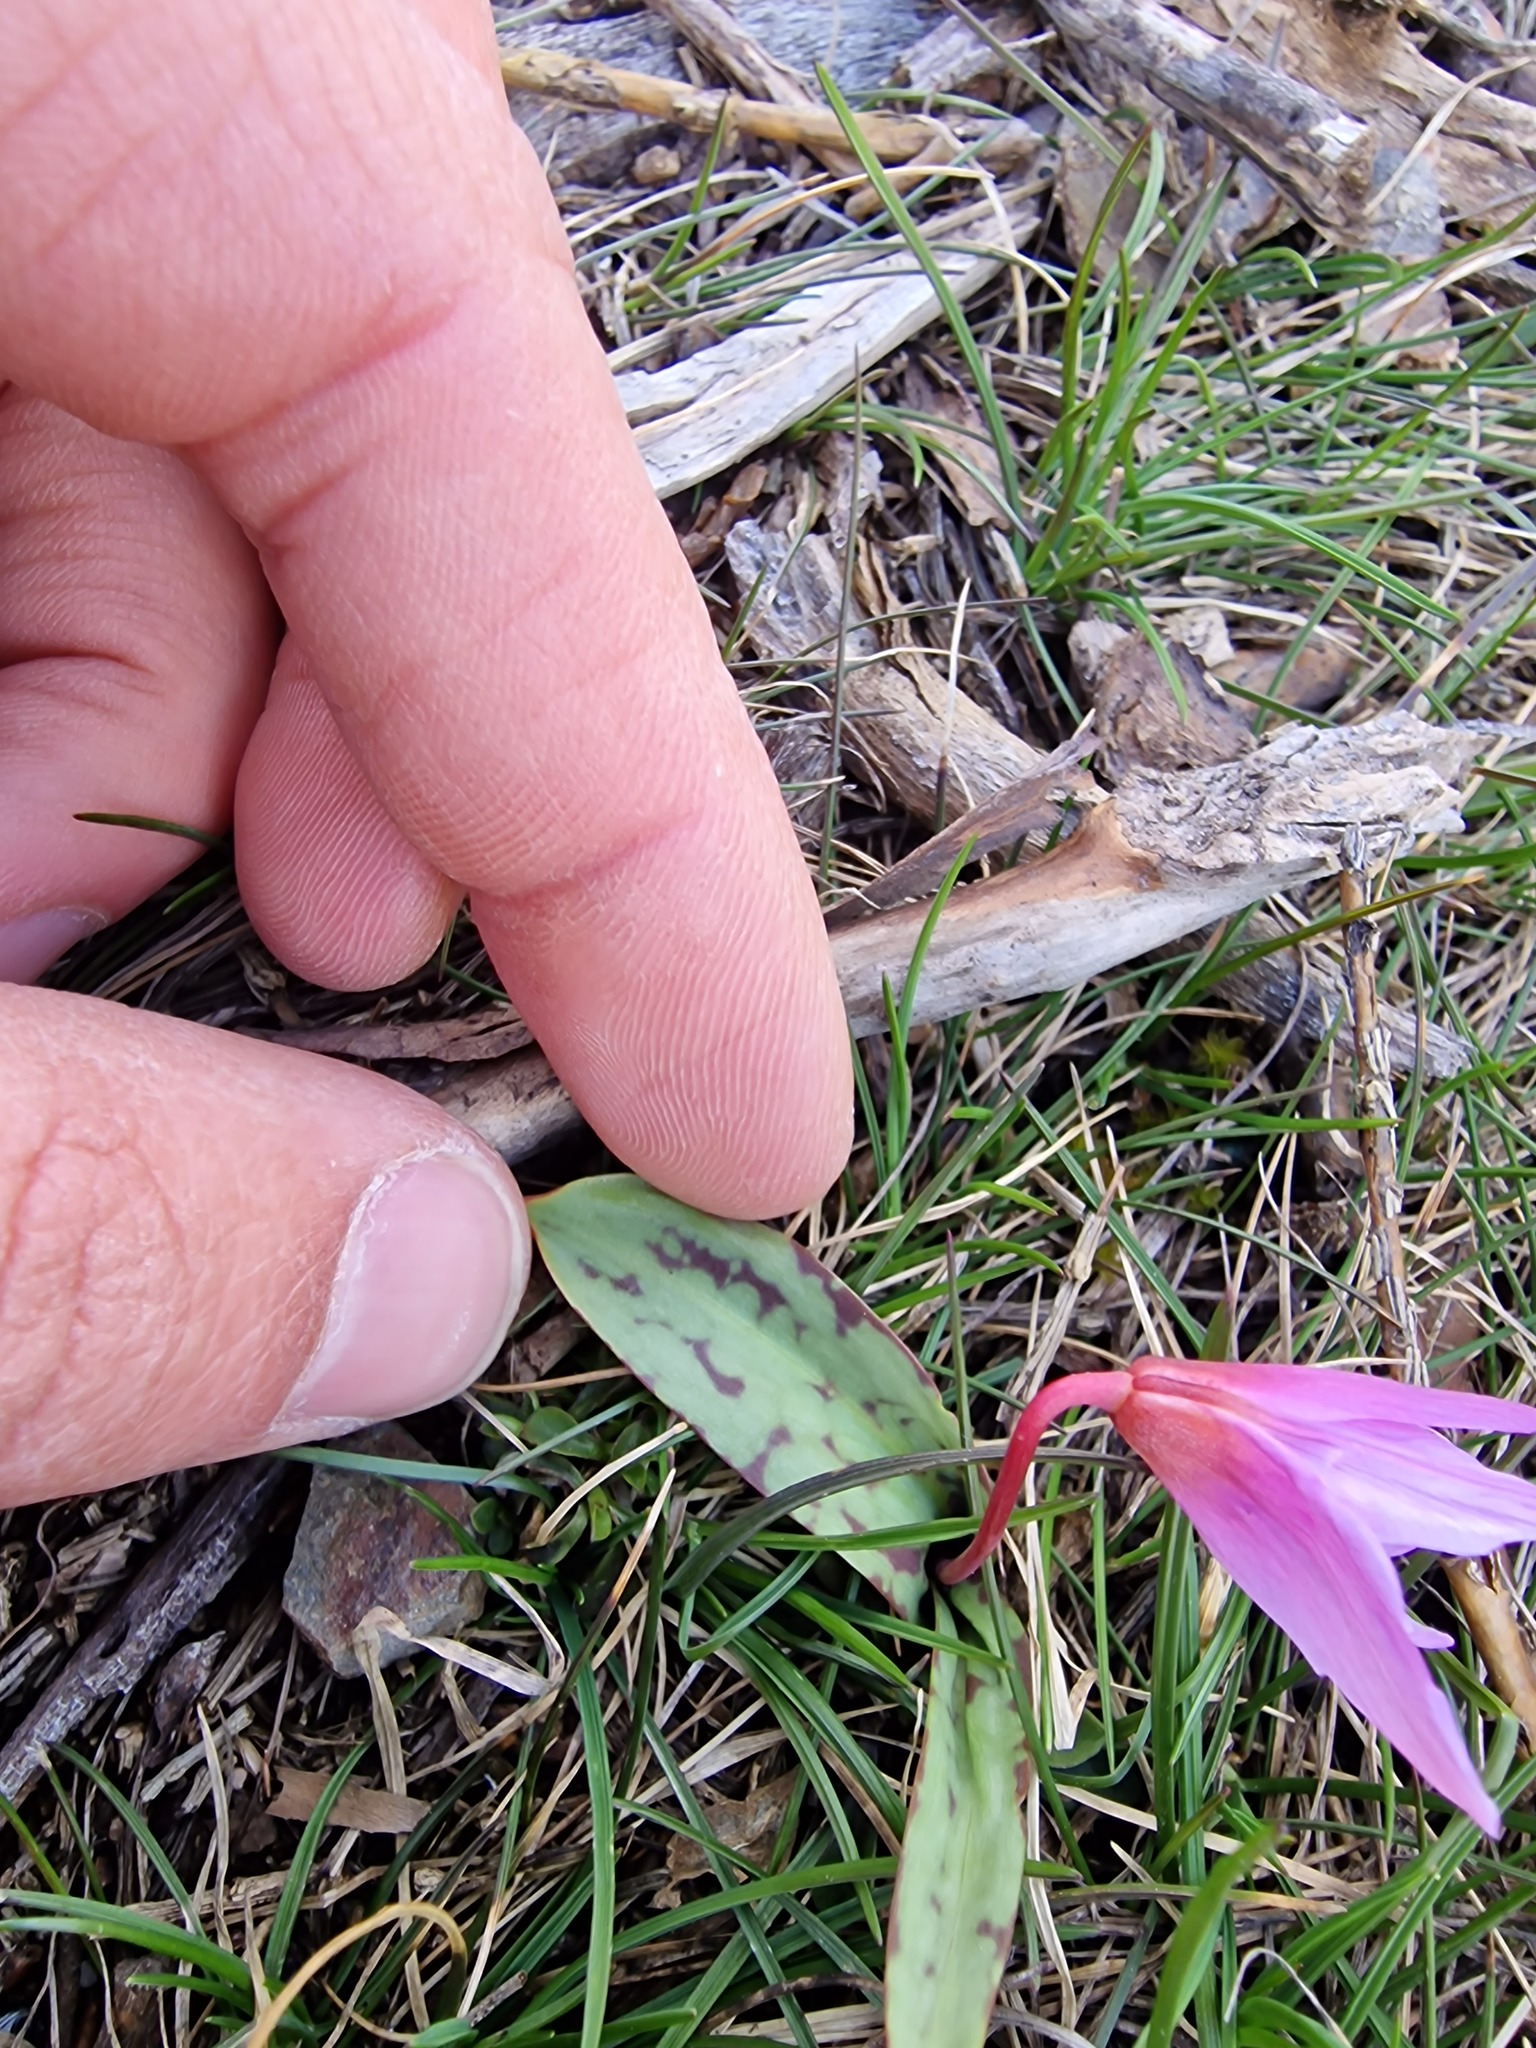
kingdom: Plantae
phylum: Tracheophyta
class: Liliopsida
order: Liliales
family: Liliaceae
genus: Erythronium
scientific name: Erythronium dens-canis
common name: Dog's-tooth-violet
